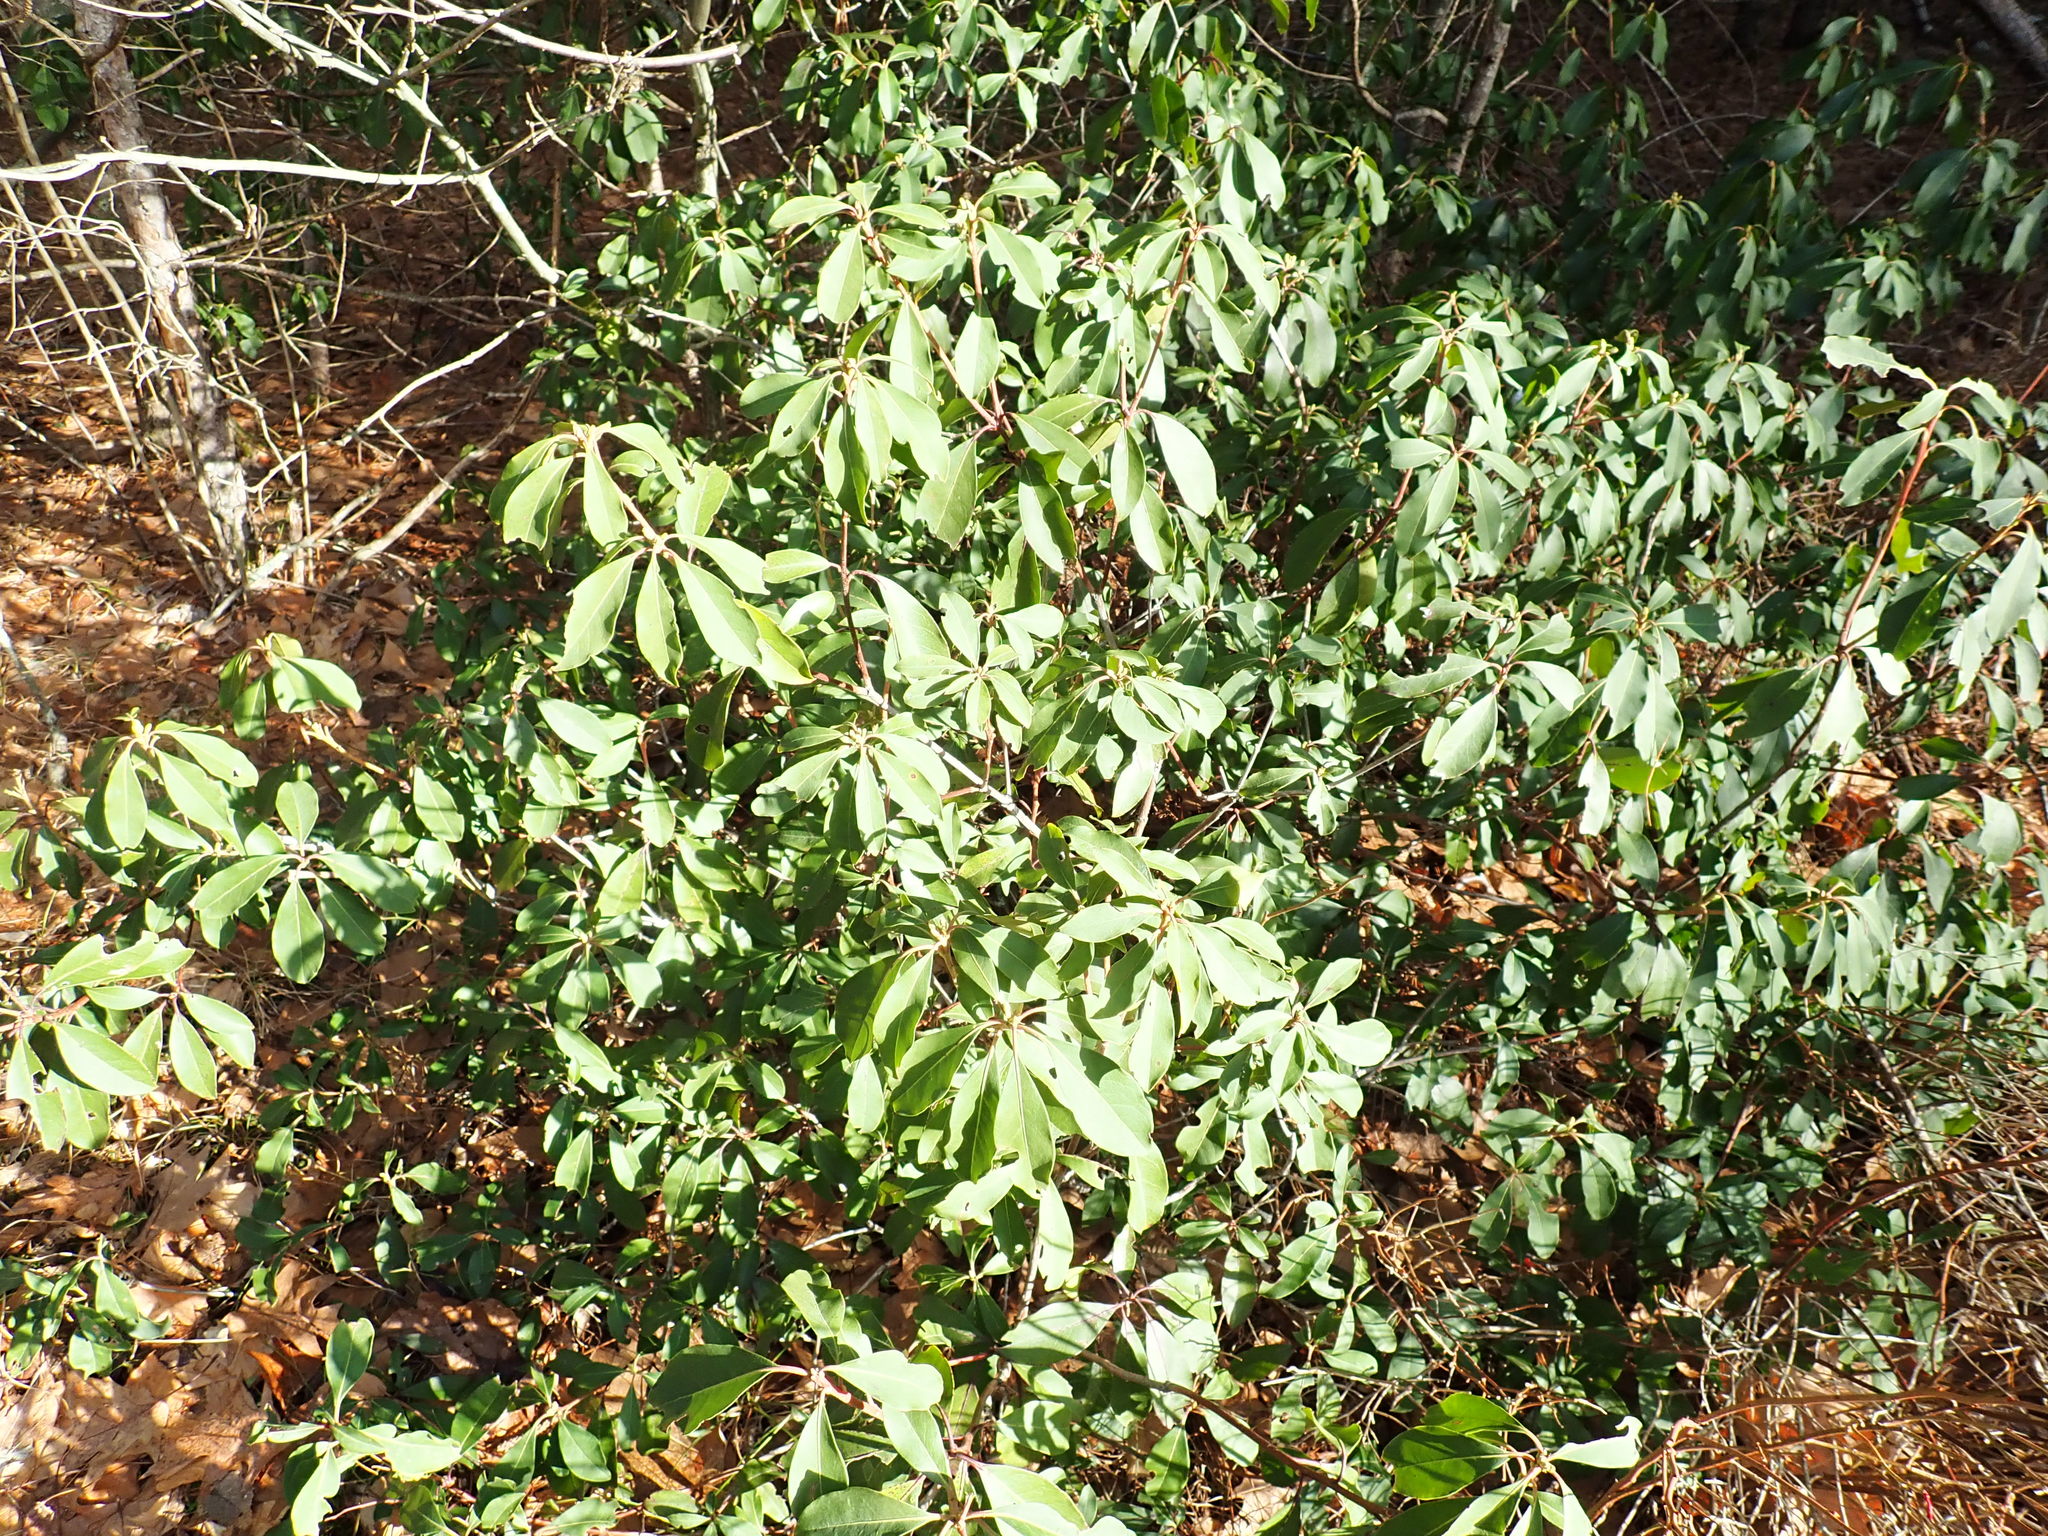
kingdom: Plantae
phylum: Tracheophyta
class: Magnoliopsida
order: Ericales
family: Ericaceae
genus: Kalmia
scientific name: Kalmia latifolia
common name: Mountain-laurel
